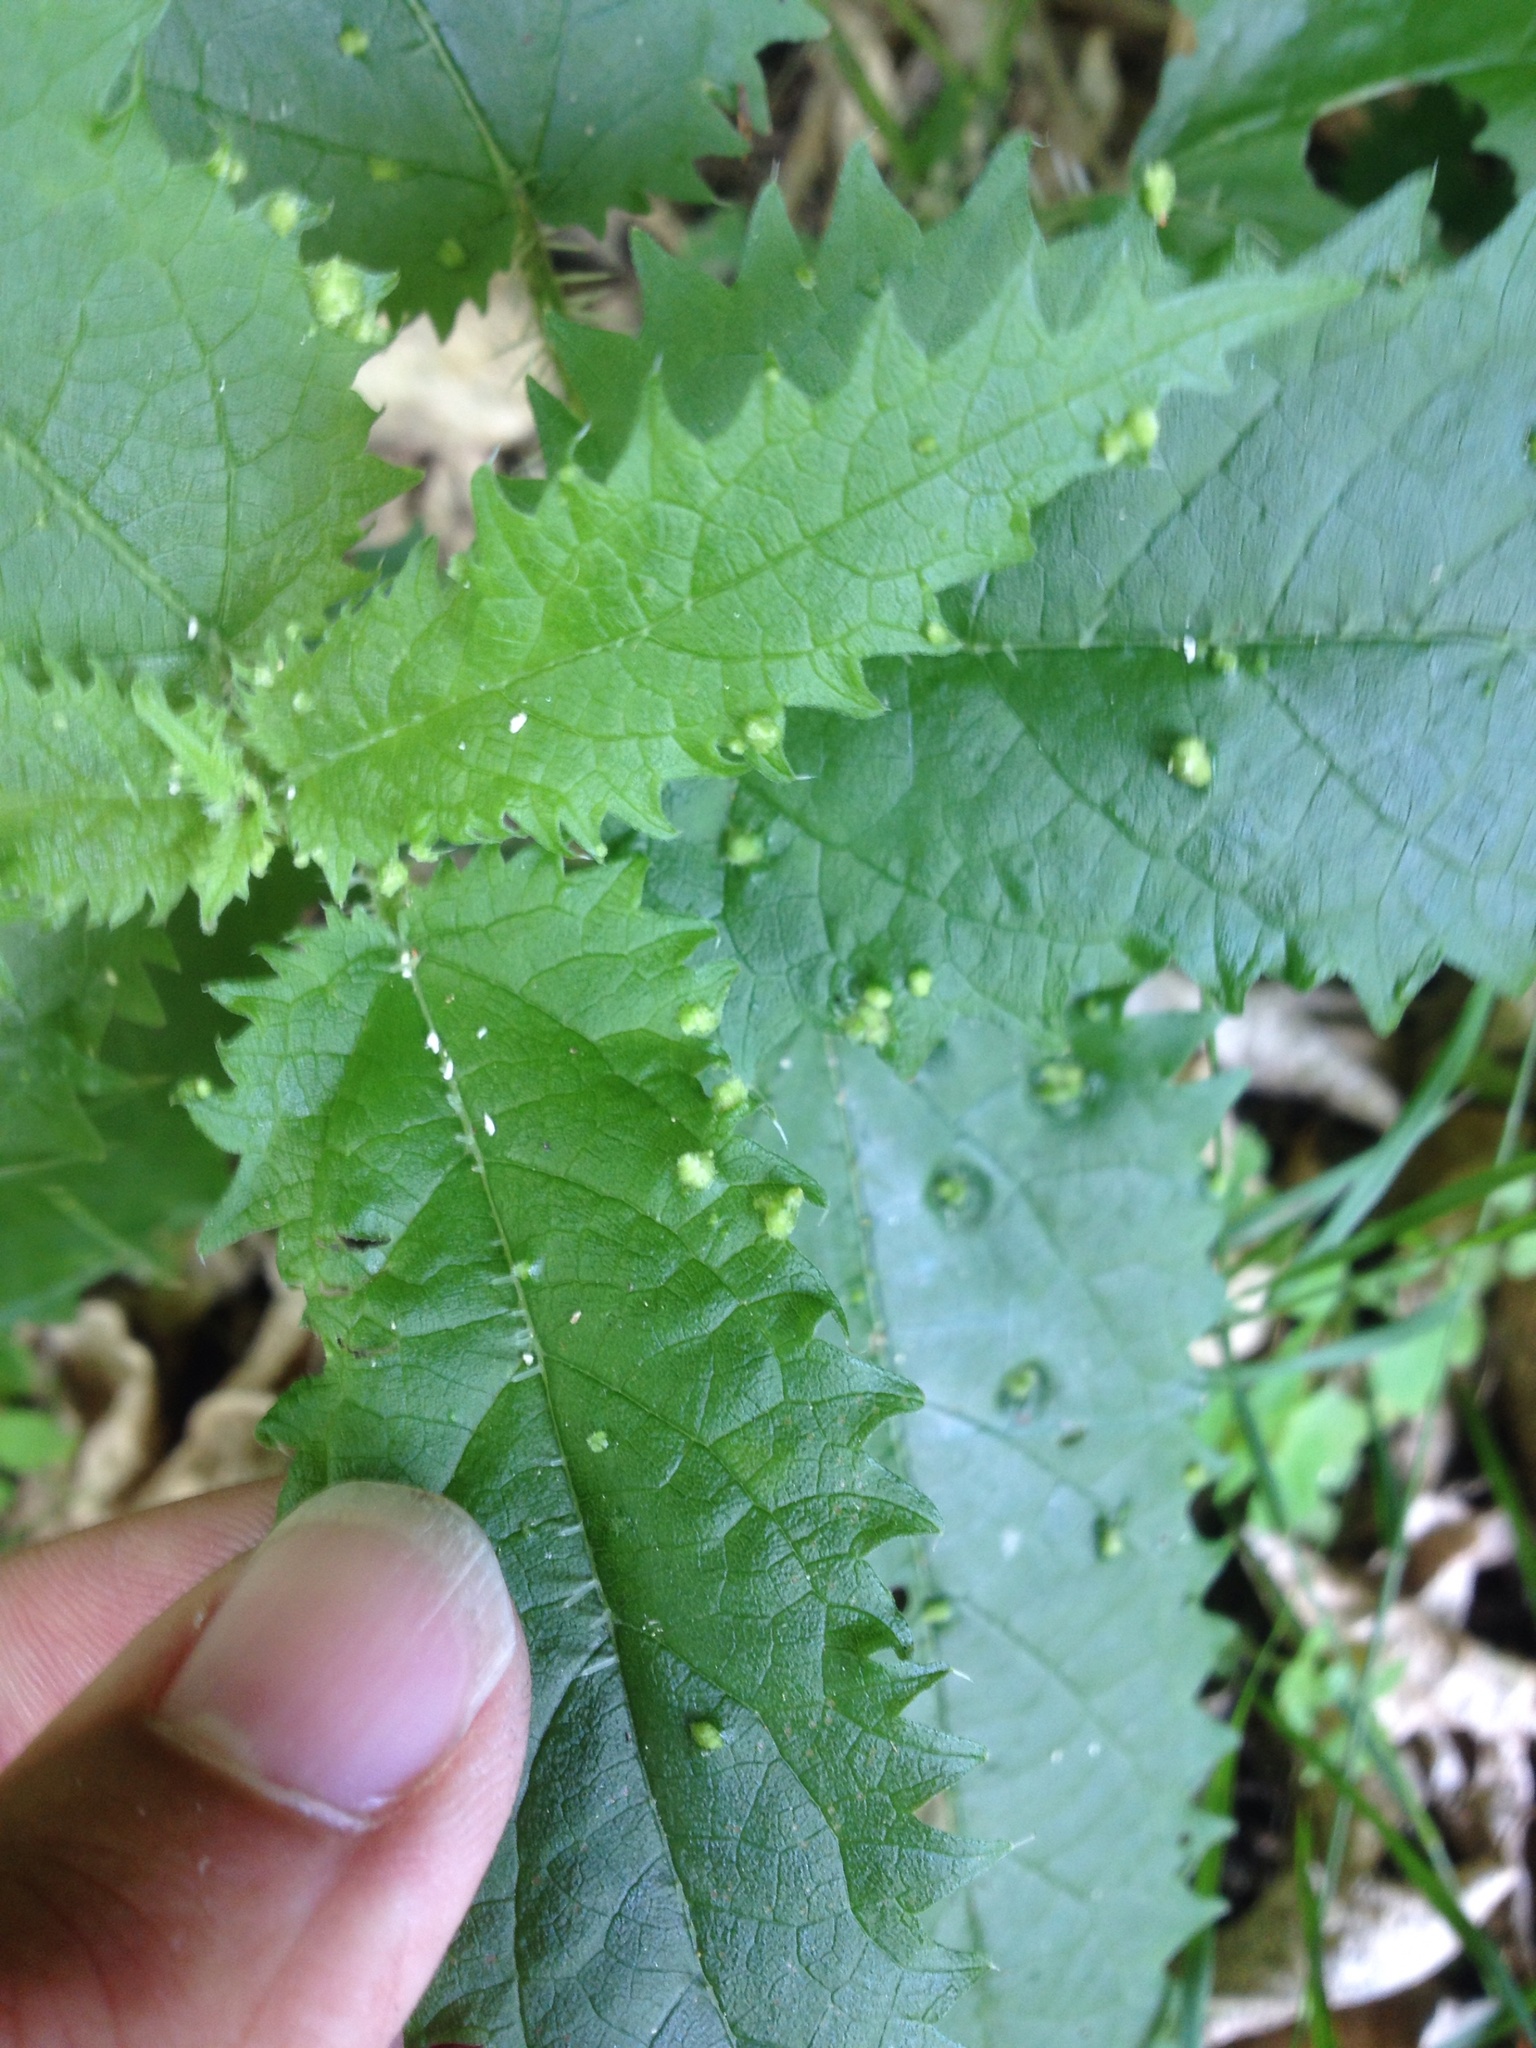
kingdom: Animalia
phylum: Arthropoda
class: Arachnida
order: Trombidiformes
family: Eriophyidae
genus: Vittacus
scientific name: Vittacus
